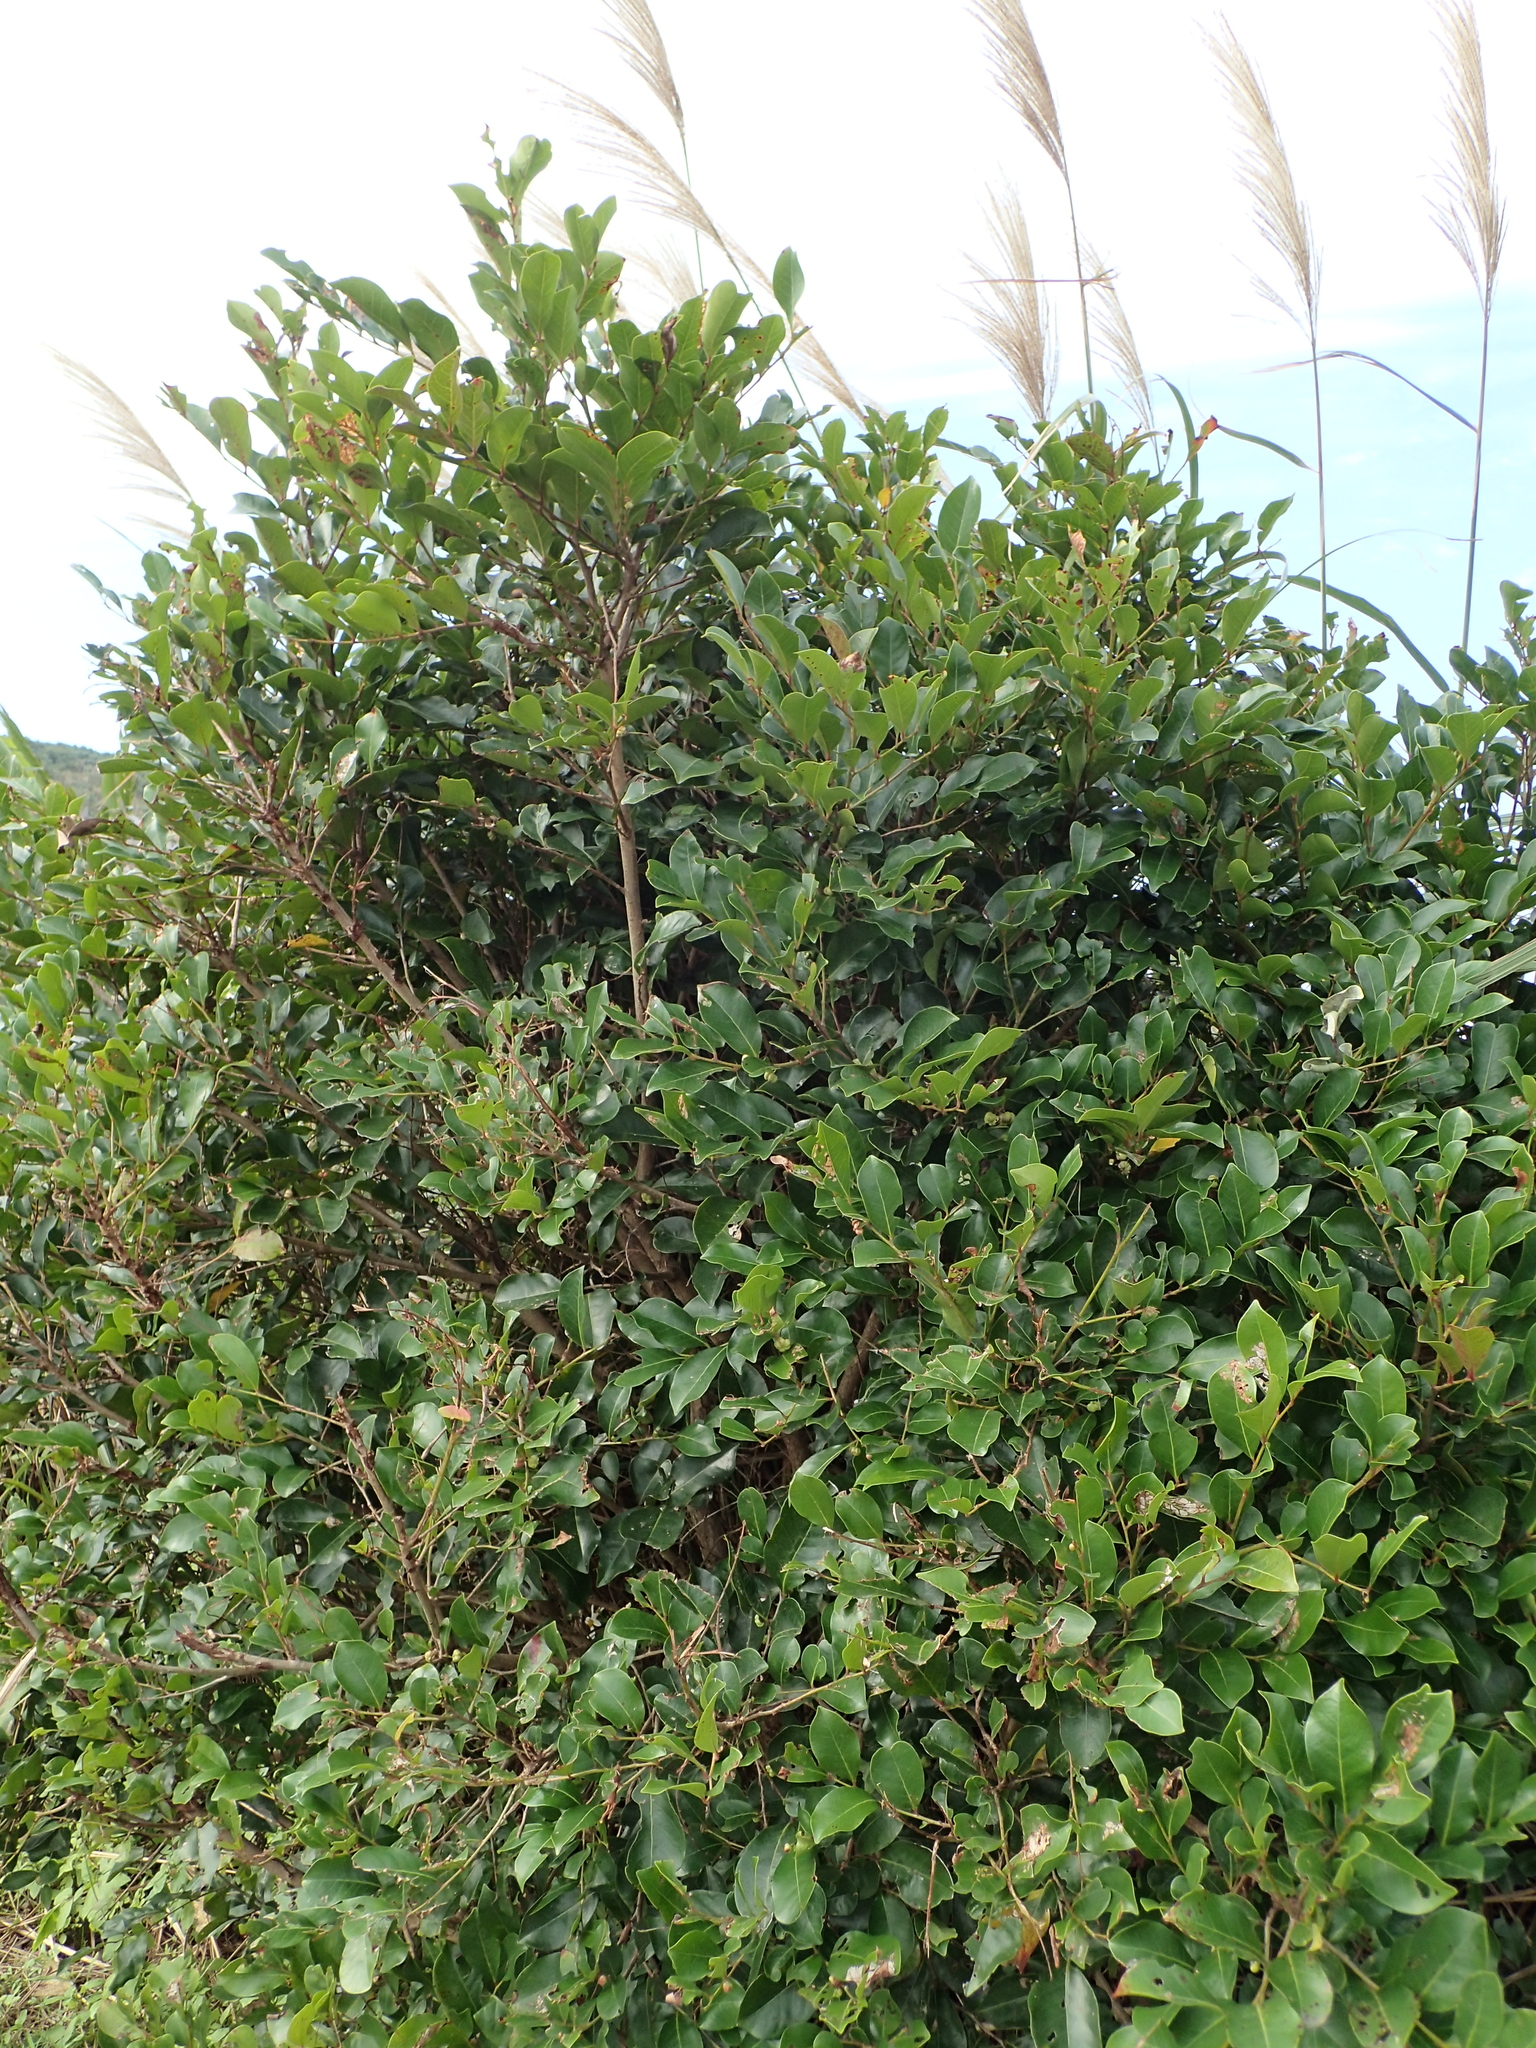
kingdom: Plantae
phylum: Tracheophyta
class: Magnoliopsida
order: Malpighiales
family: Phyllanthaceae
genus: Glochidion
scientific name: Glochidion rubrum
